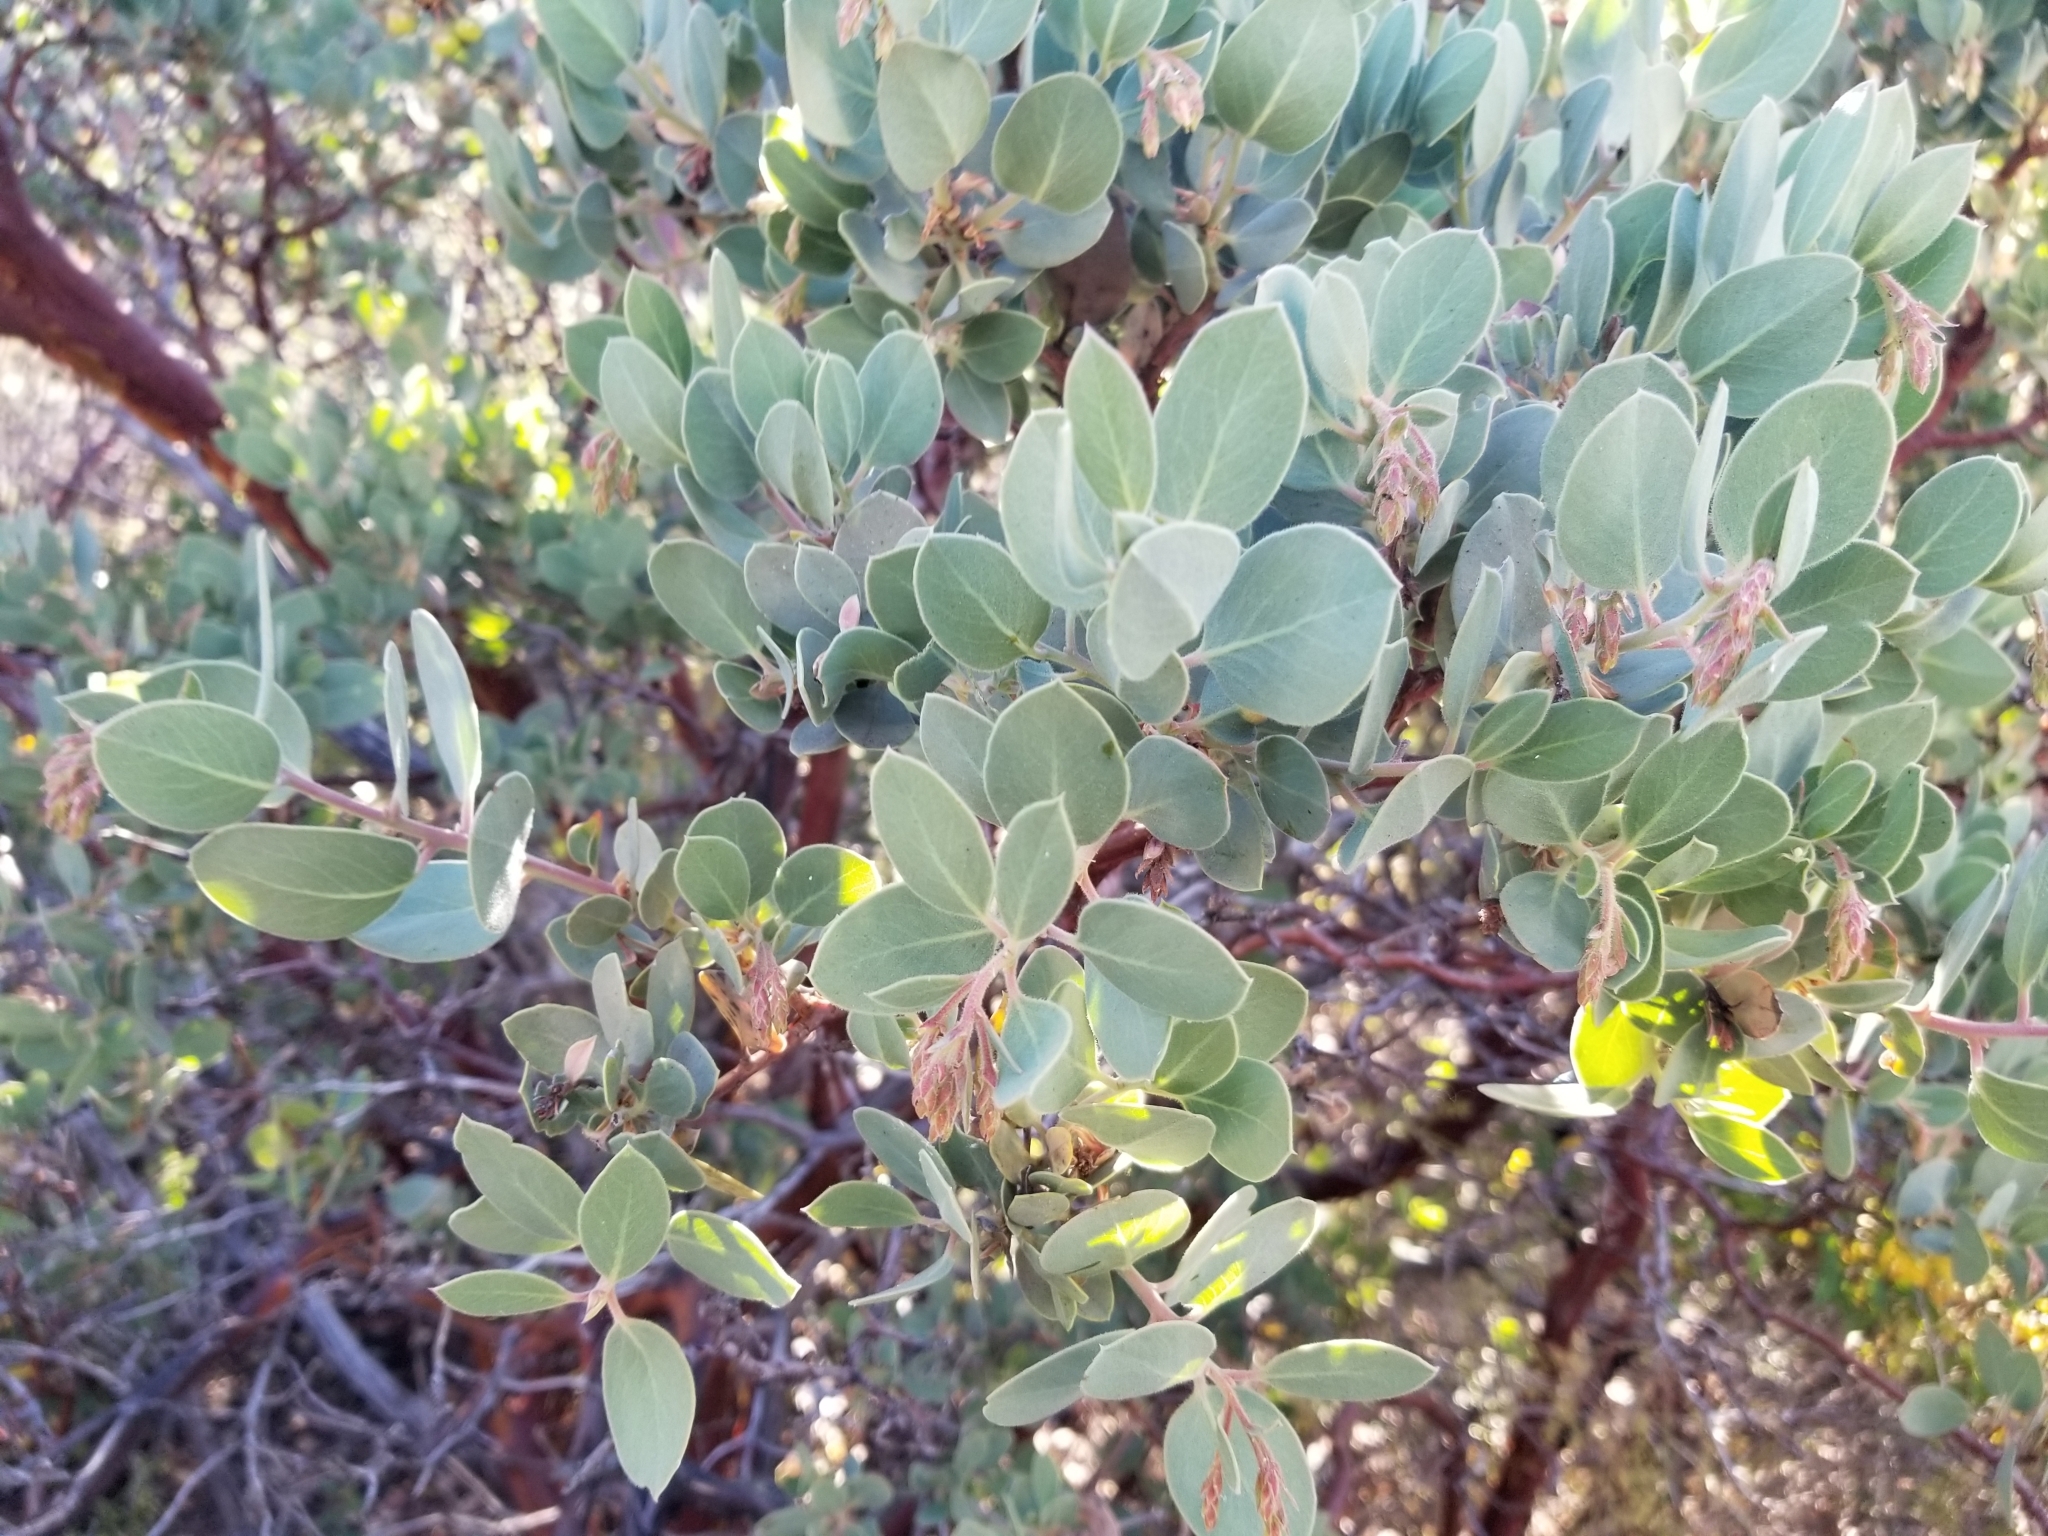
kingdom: Plantae
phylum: Tracheophyta
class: Magnoliopsida
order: Ericales
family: Ericaceae
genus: Arctostaphylos
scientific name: Arctostaphylos glauca
